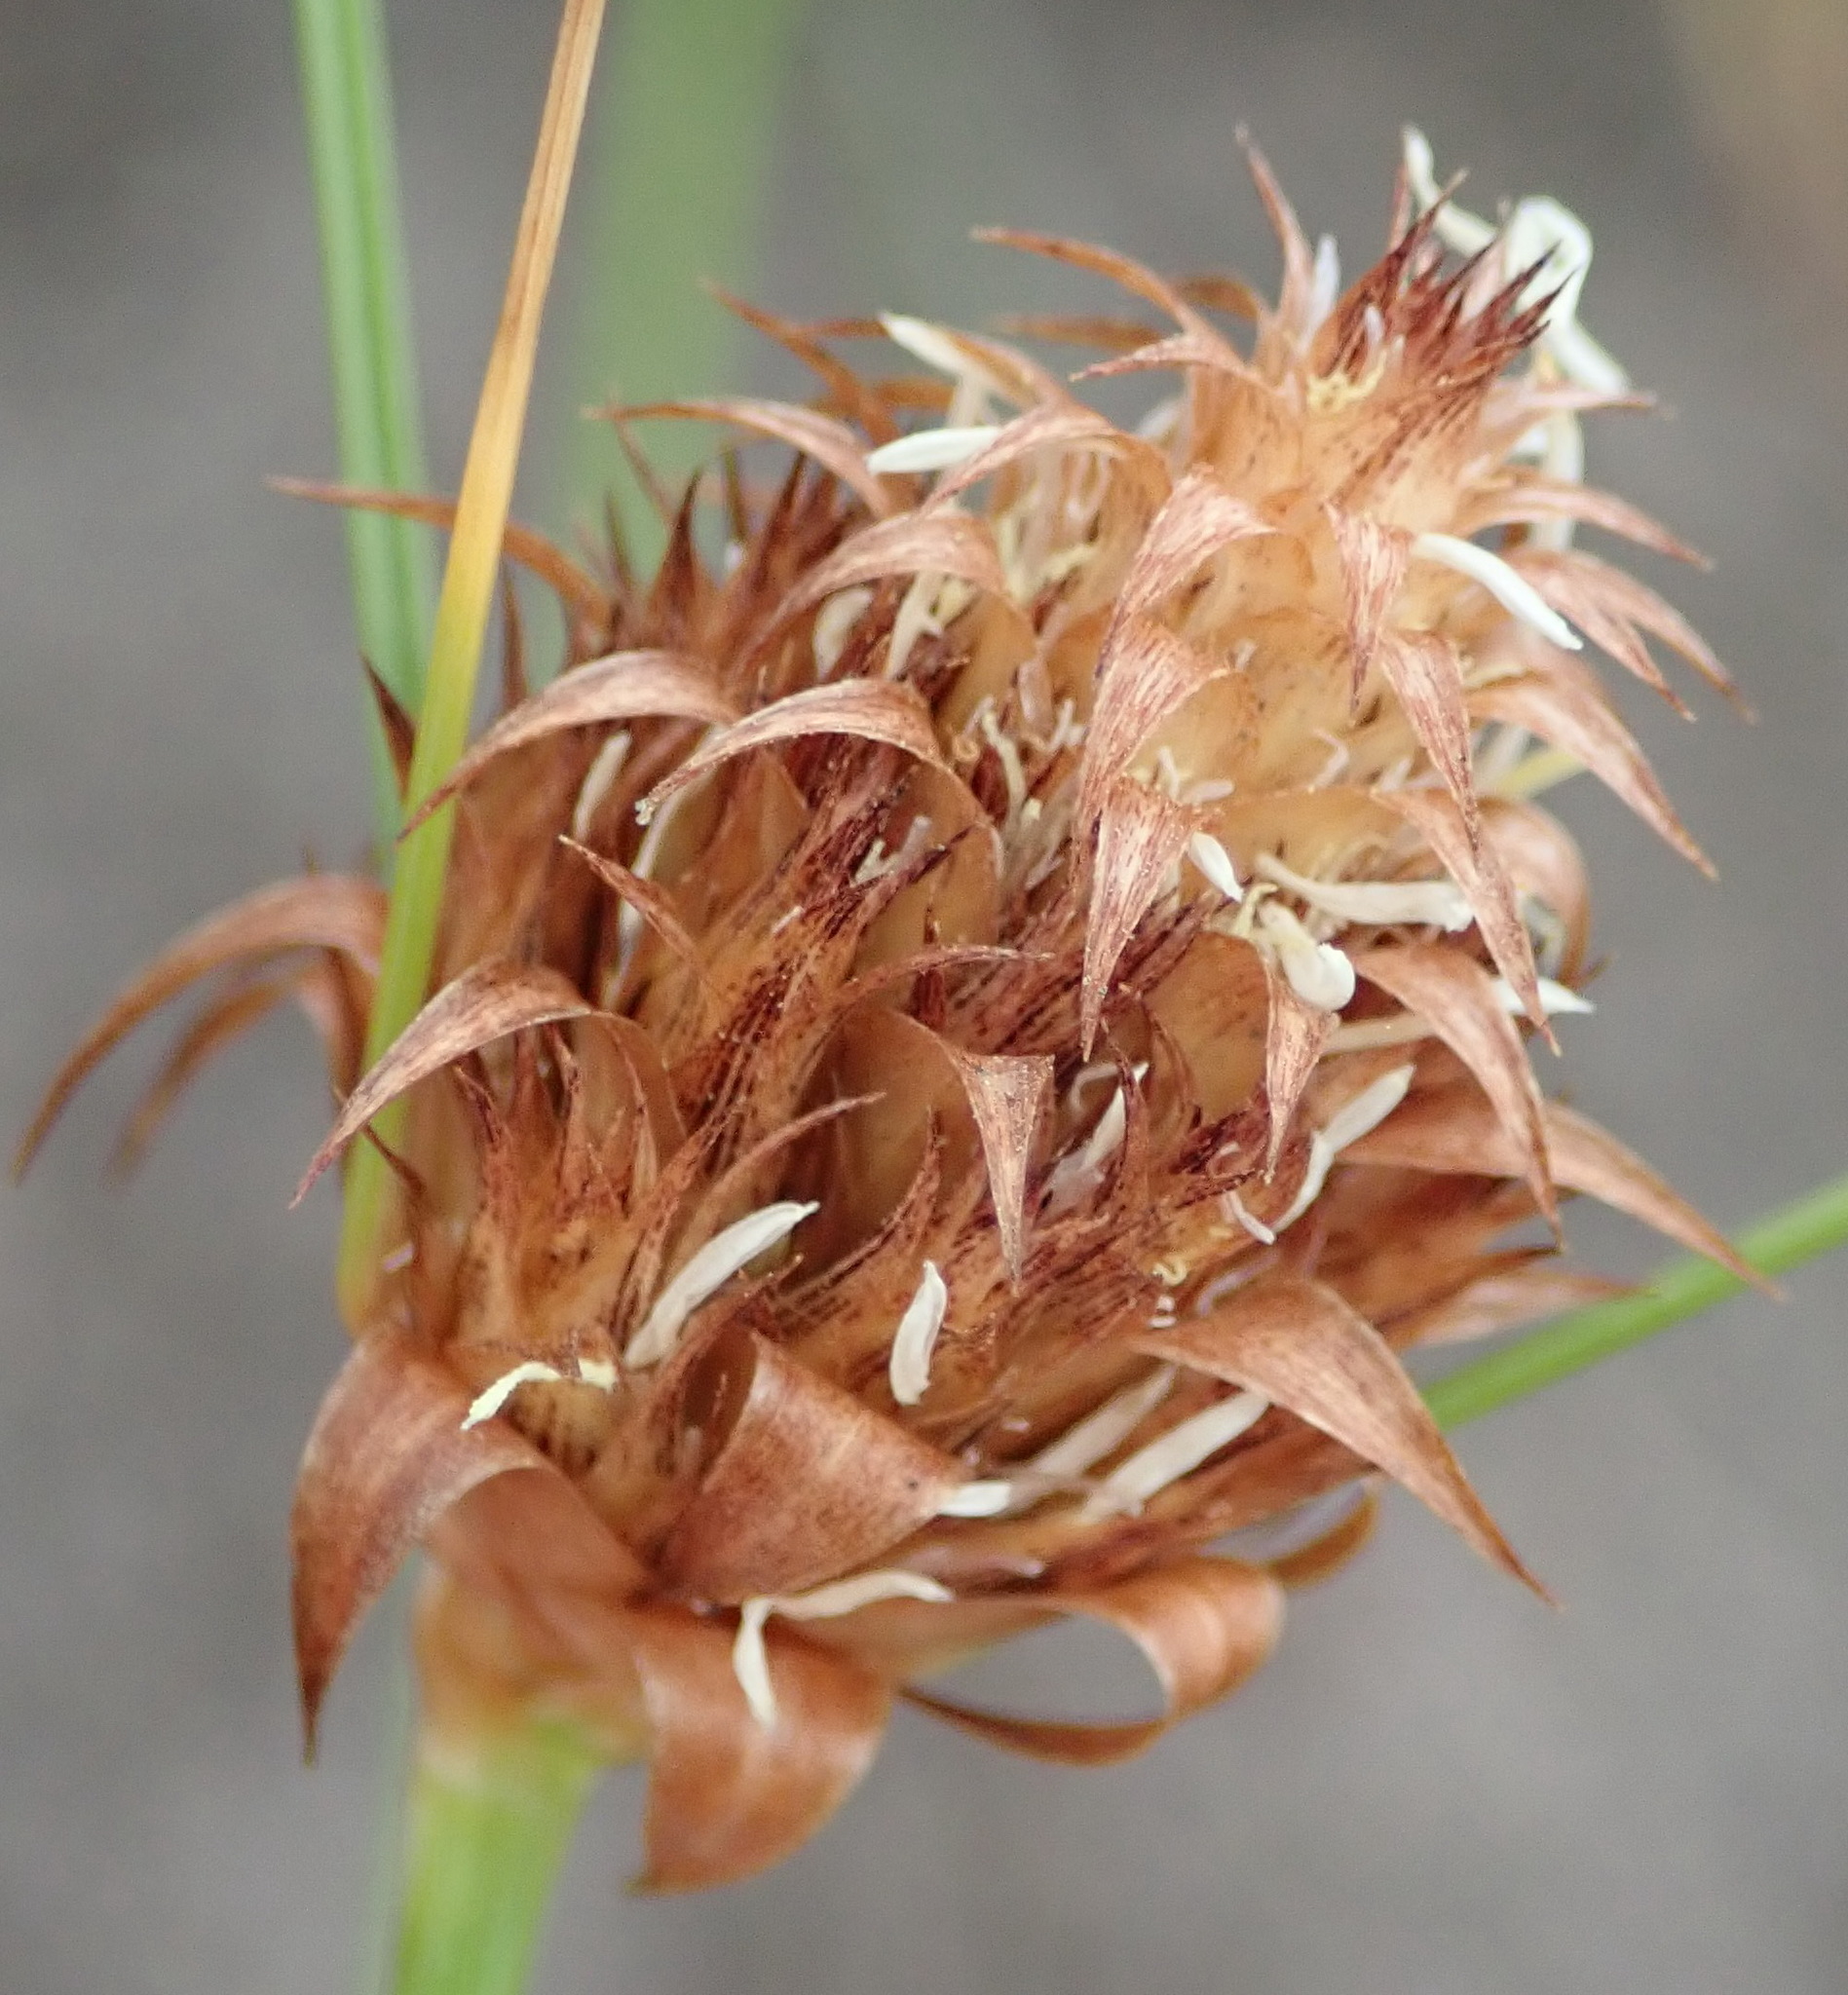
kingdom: Plantae
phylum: Tracheophyta
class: Liliopsida
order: Poales
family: Cyperaceae
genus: Ficinia
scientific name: Ficinia nigrescens
